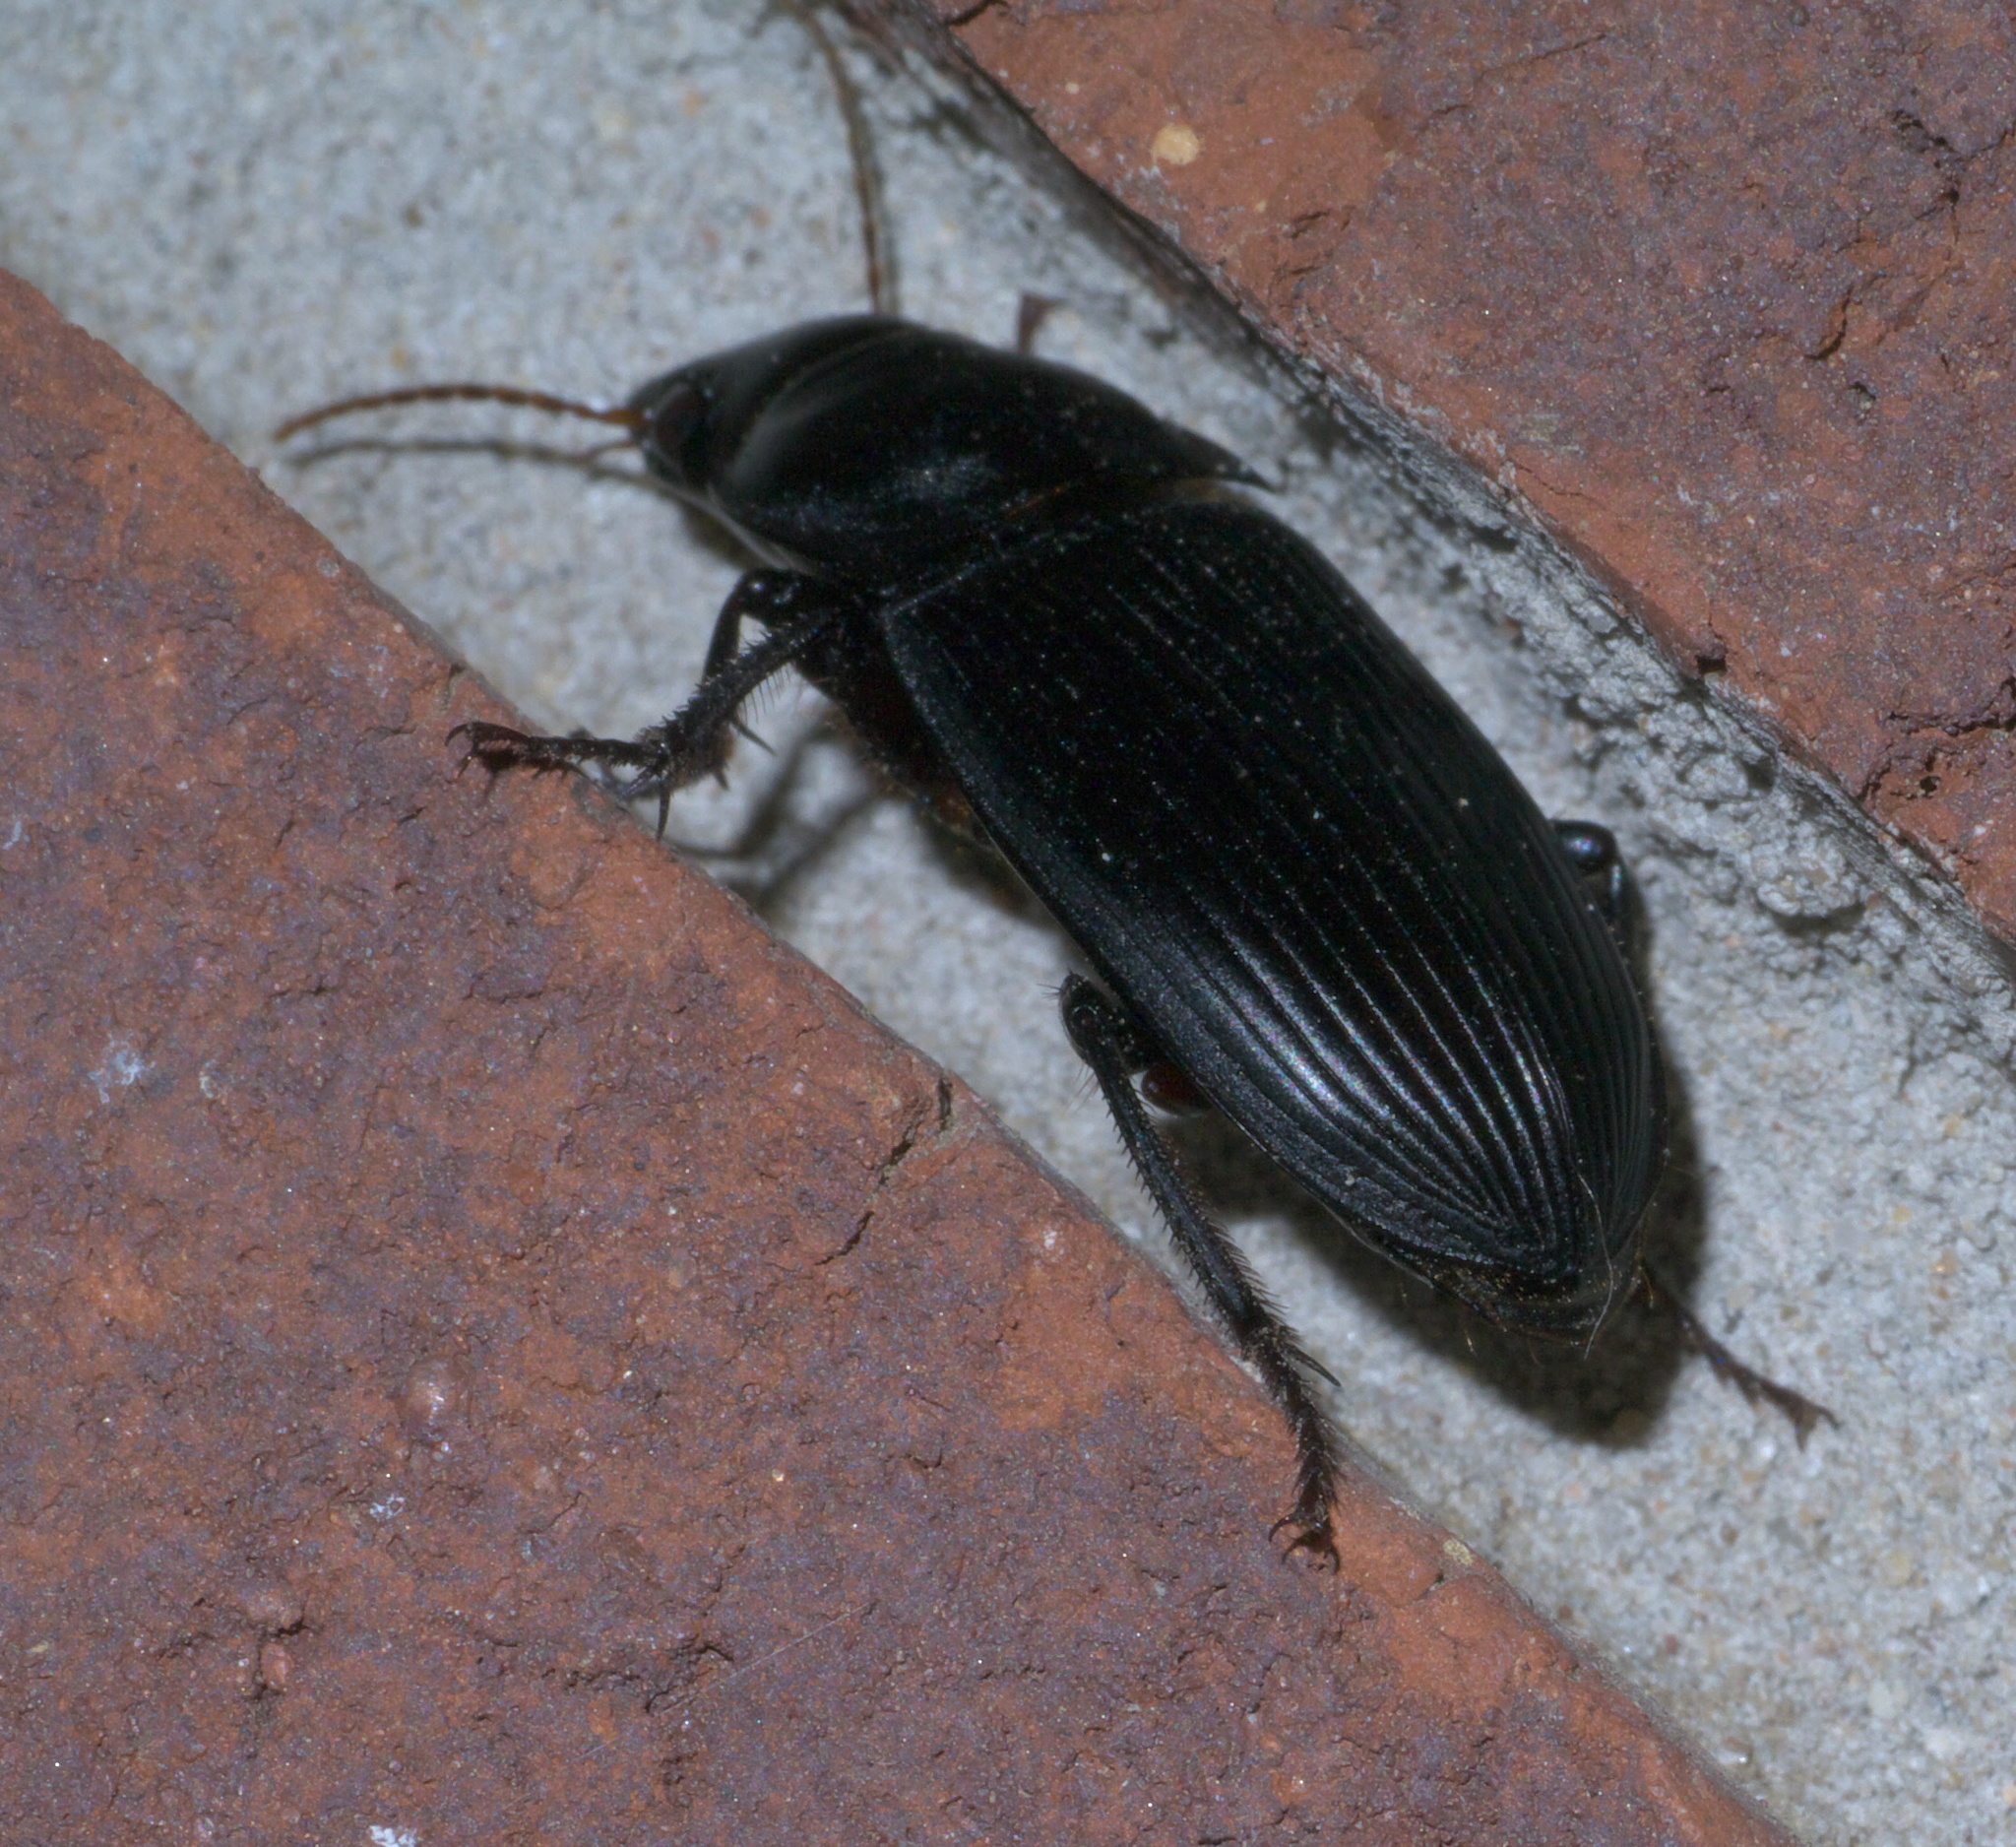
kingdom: Animalia
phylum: Arthropoda
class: Insecta
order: Coleoptera
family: Carabidae
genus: Harpalus
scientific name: Harpalus caliginosus
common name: Murky ground beetle
